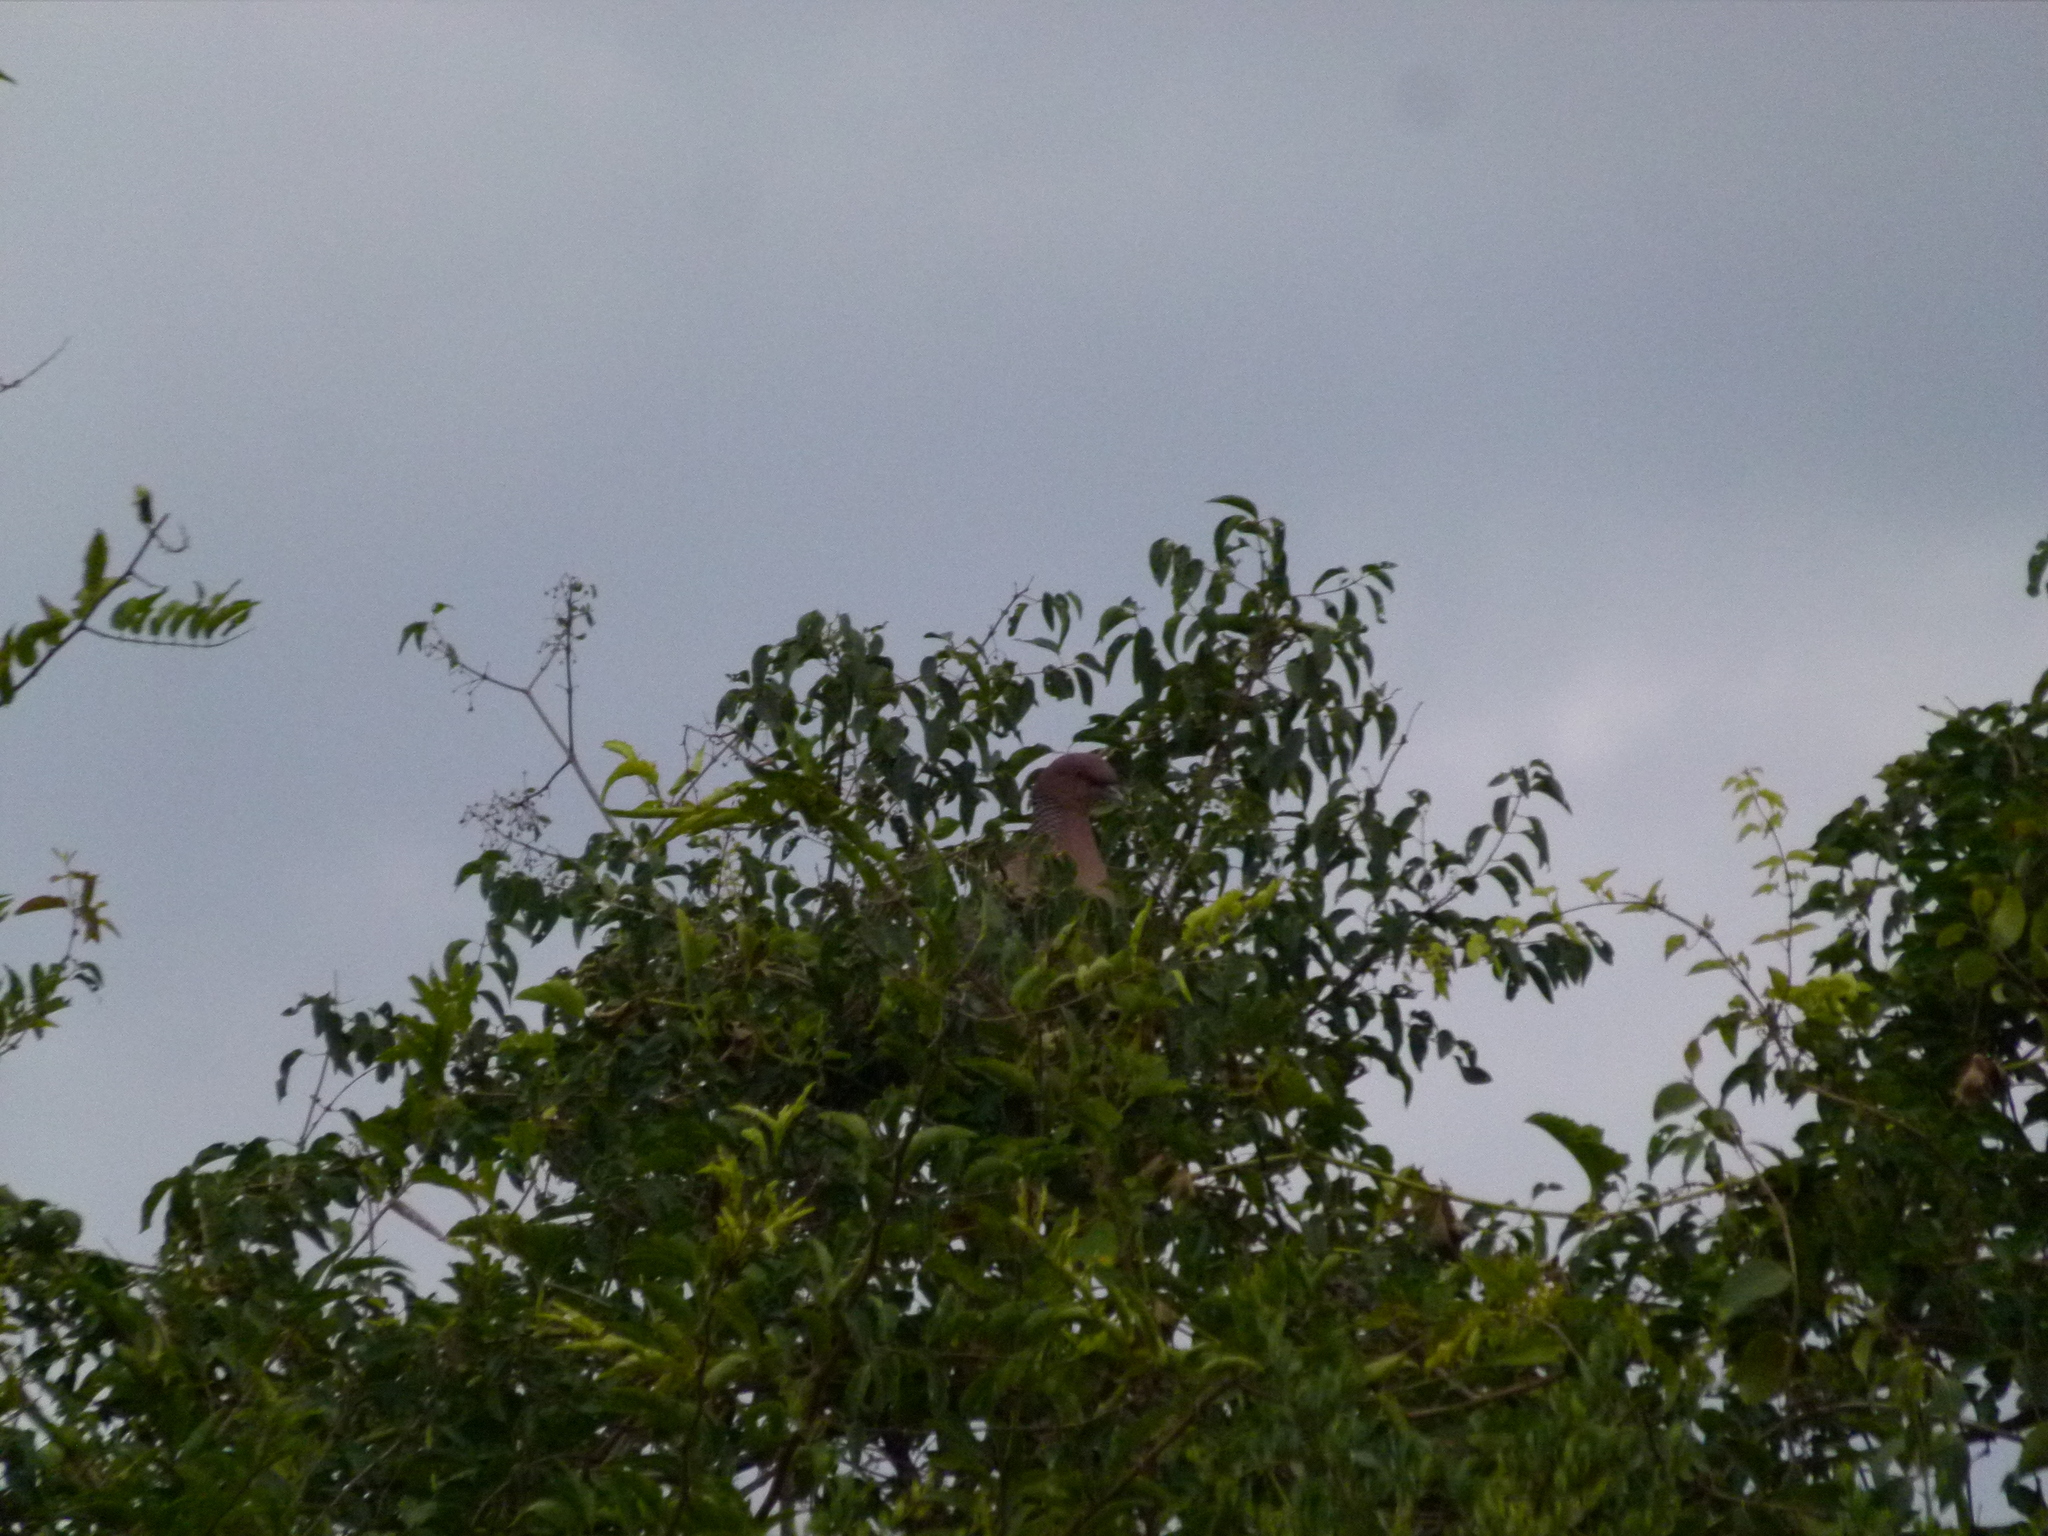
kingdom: Animalia
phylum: Chordata
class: Aves
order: Columbiformes
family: Columbidae
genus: Patagioenas
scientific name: Patagioenas picazuro
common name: Picazuro pigeon
